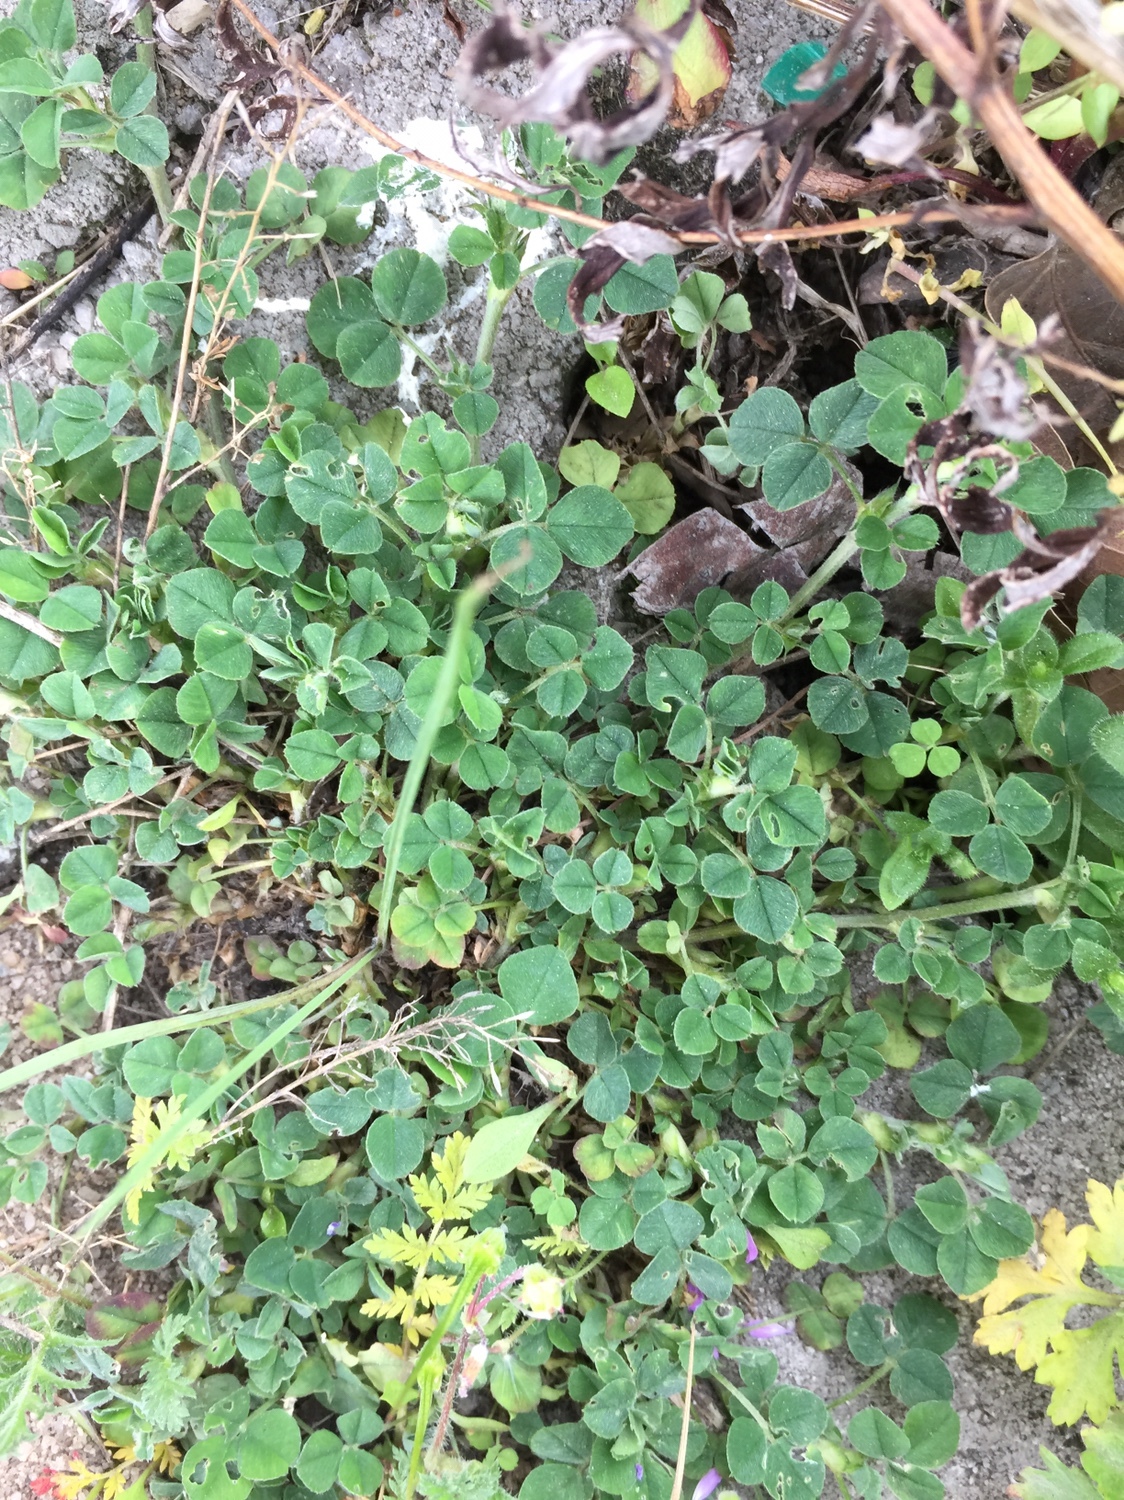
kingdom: Plantae
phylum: Tracheophyta
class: Magnoliopsida
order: Fabales
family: Fabaceae
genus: Medicago
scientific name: Medicago lupulina
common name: Black medick
